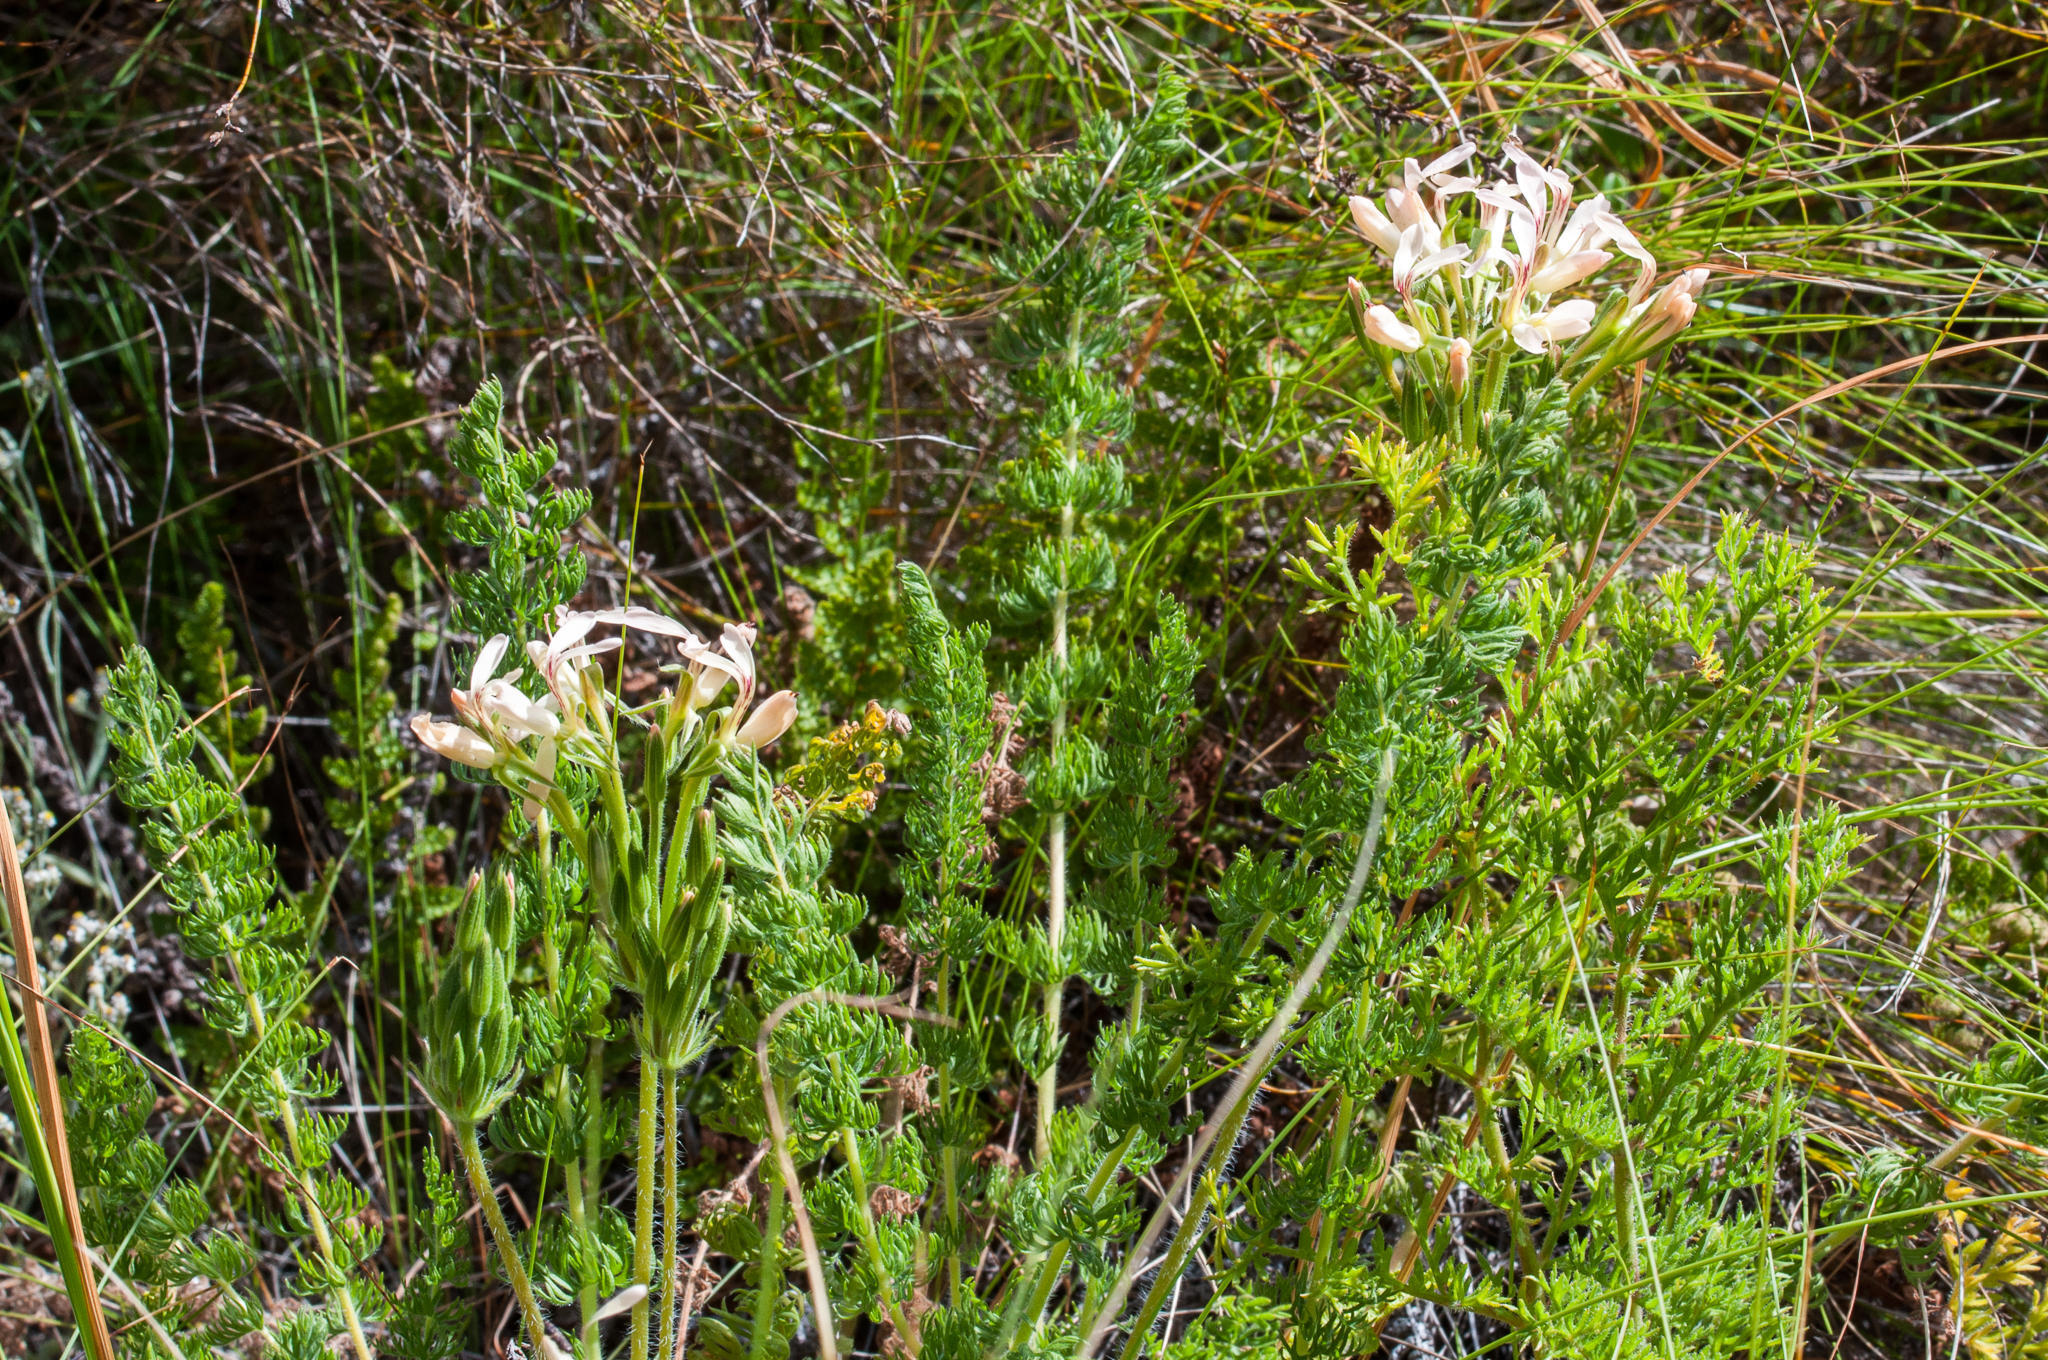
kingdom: Plantae
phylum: Tracheophyta
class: Magnoliopsida
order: Geraniales
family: Geraniaceae
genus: Pelargonium
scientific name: Pelargonium rapaceum
